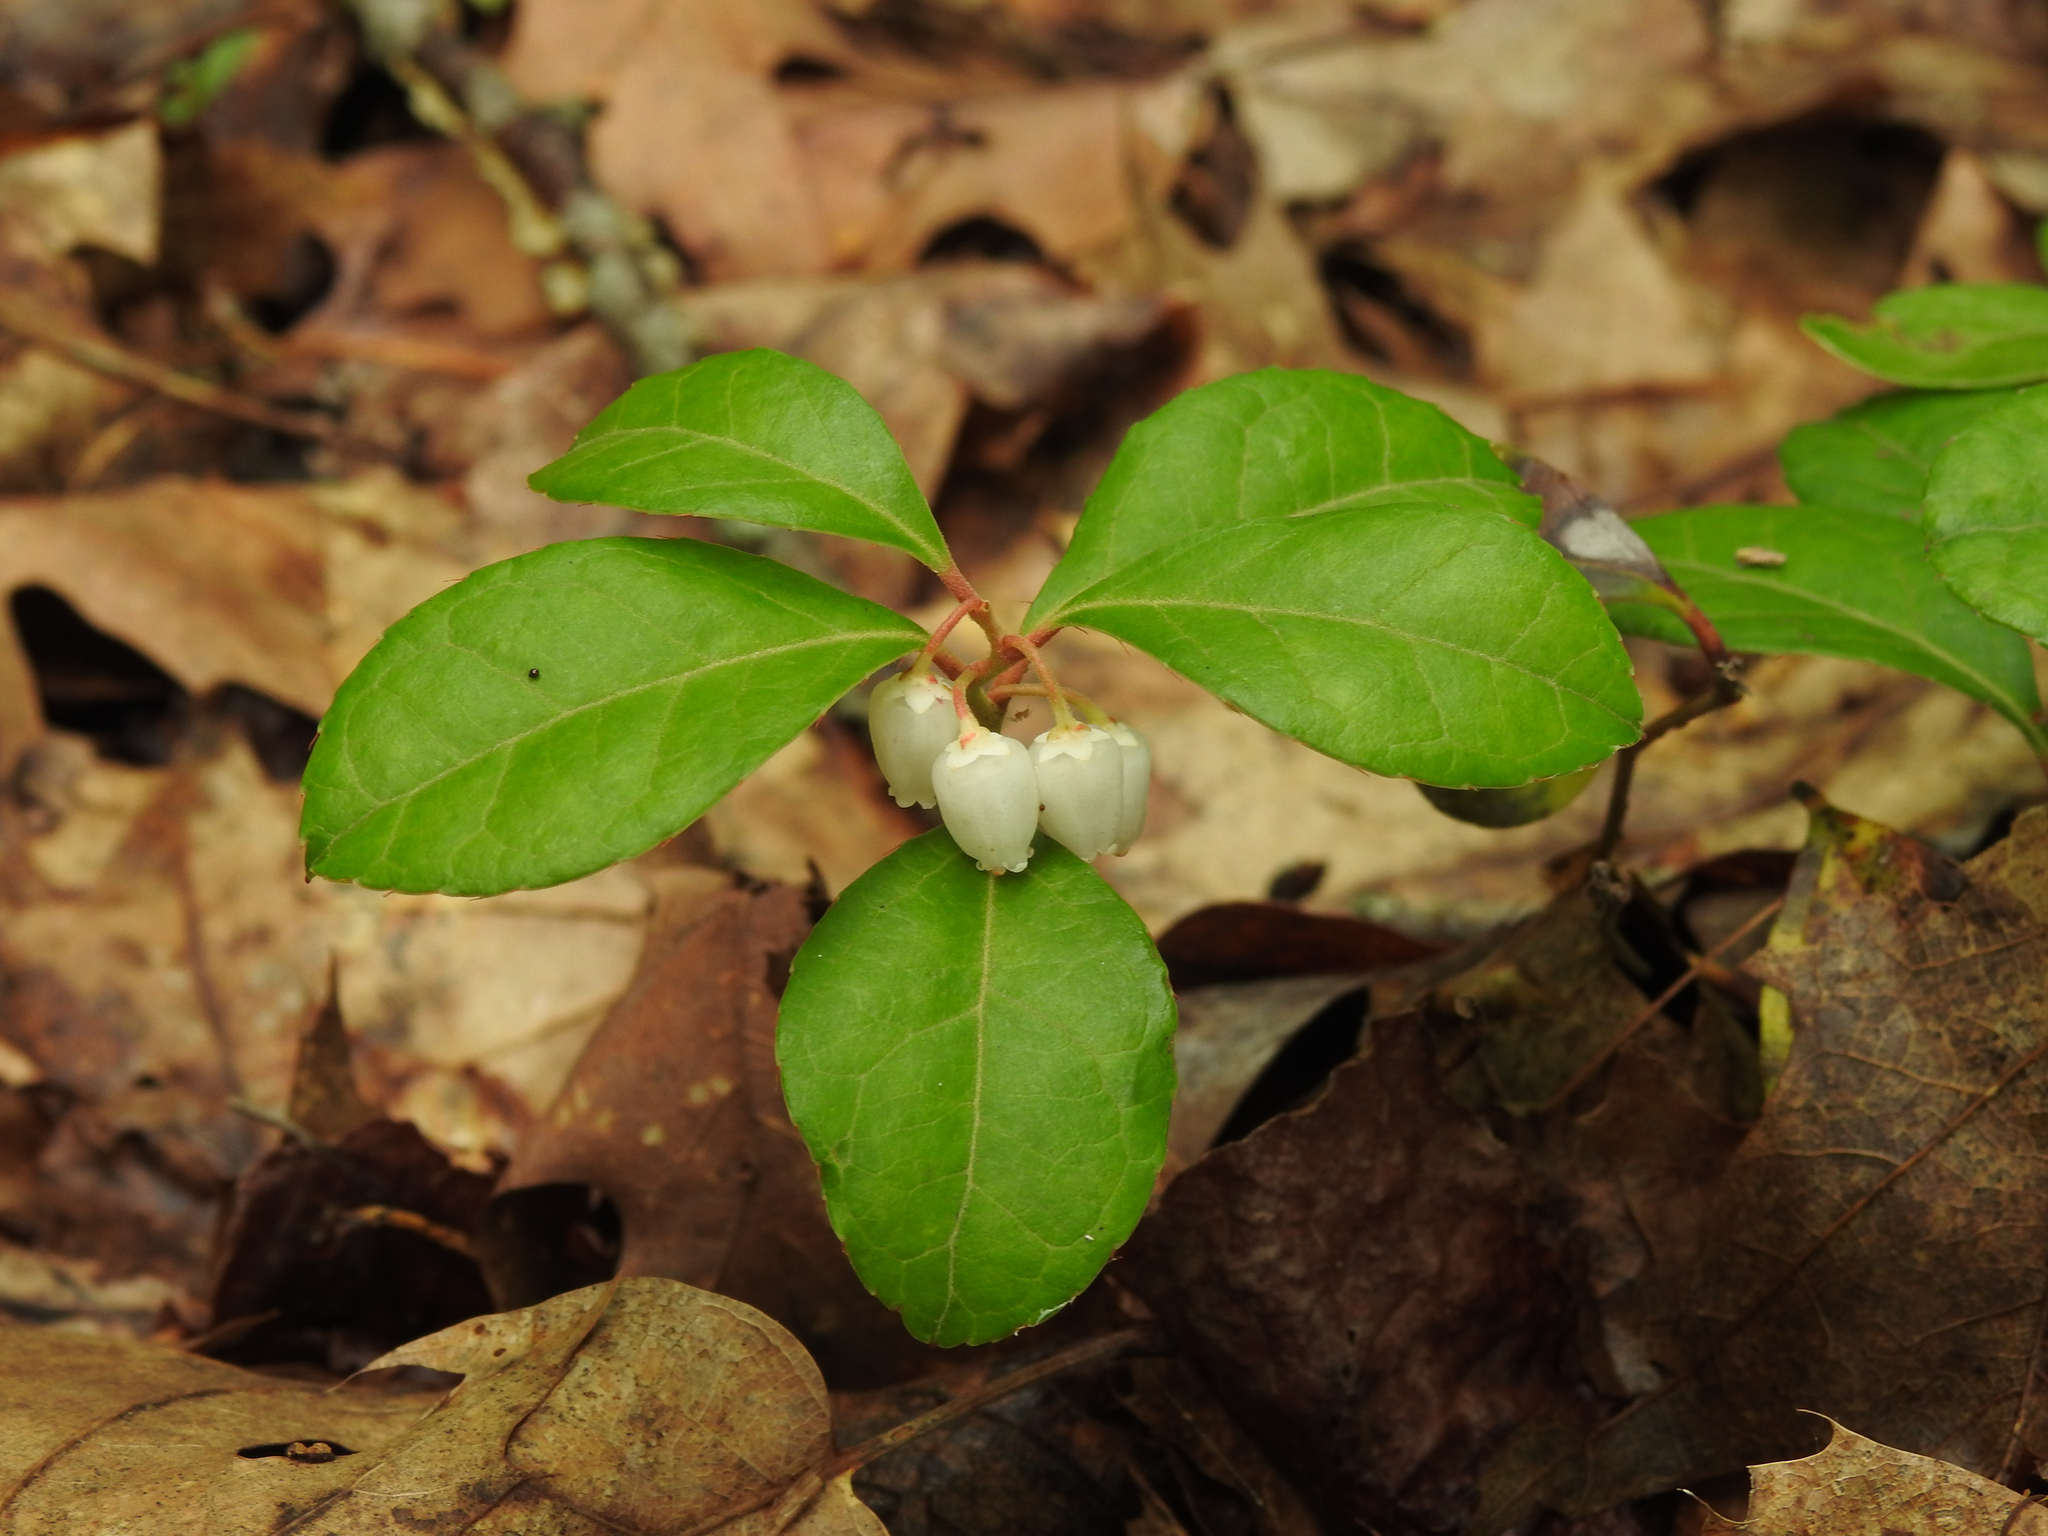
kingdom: Plantae
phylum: Tracheophyta
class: Magnoliopsida
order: Ericales
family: Ericaceae
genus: Gaultheria
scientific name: Gaultheria procumbens
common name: Checkerberry
